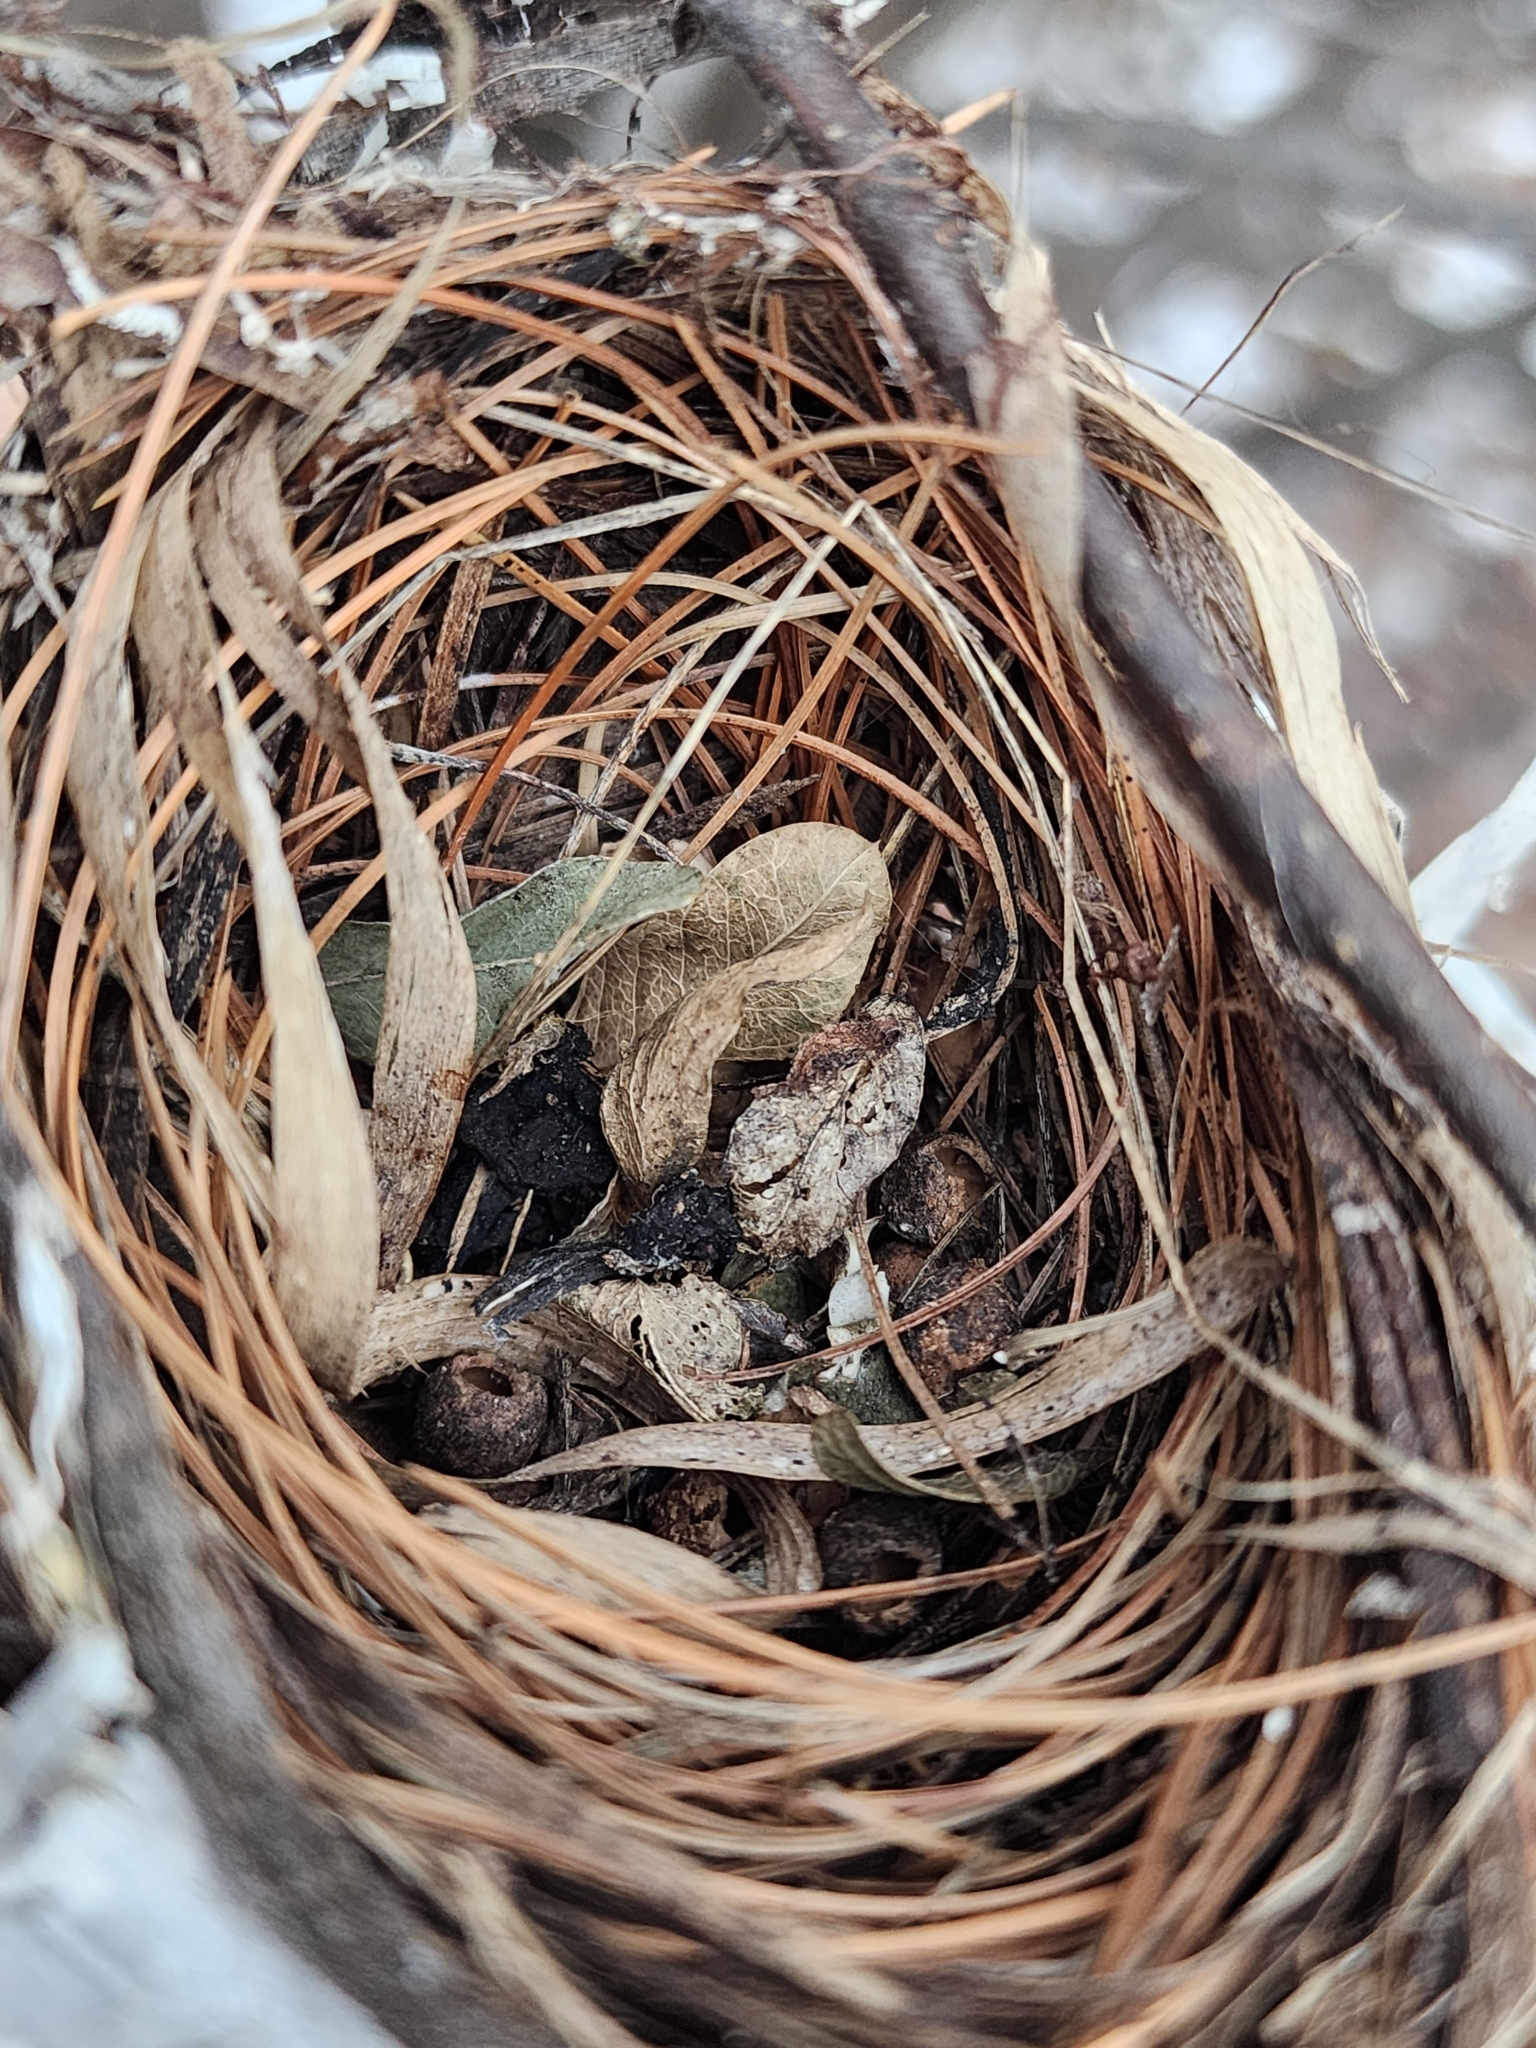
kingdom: Animalia
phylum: Chordata
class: Aves
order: Passeriformes
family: Vireonidae
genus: Vireo
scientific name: Vireo olivaceus
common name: Red-eyed vireo
